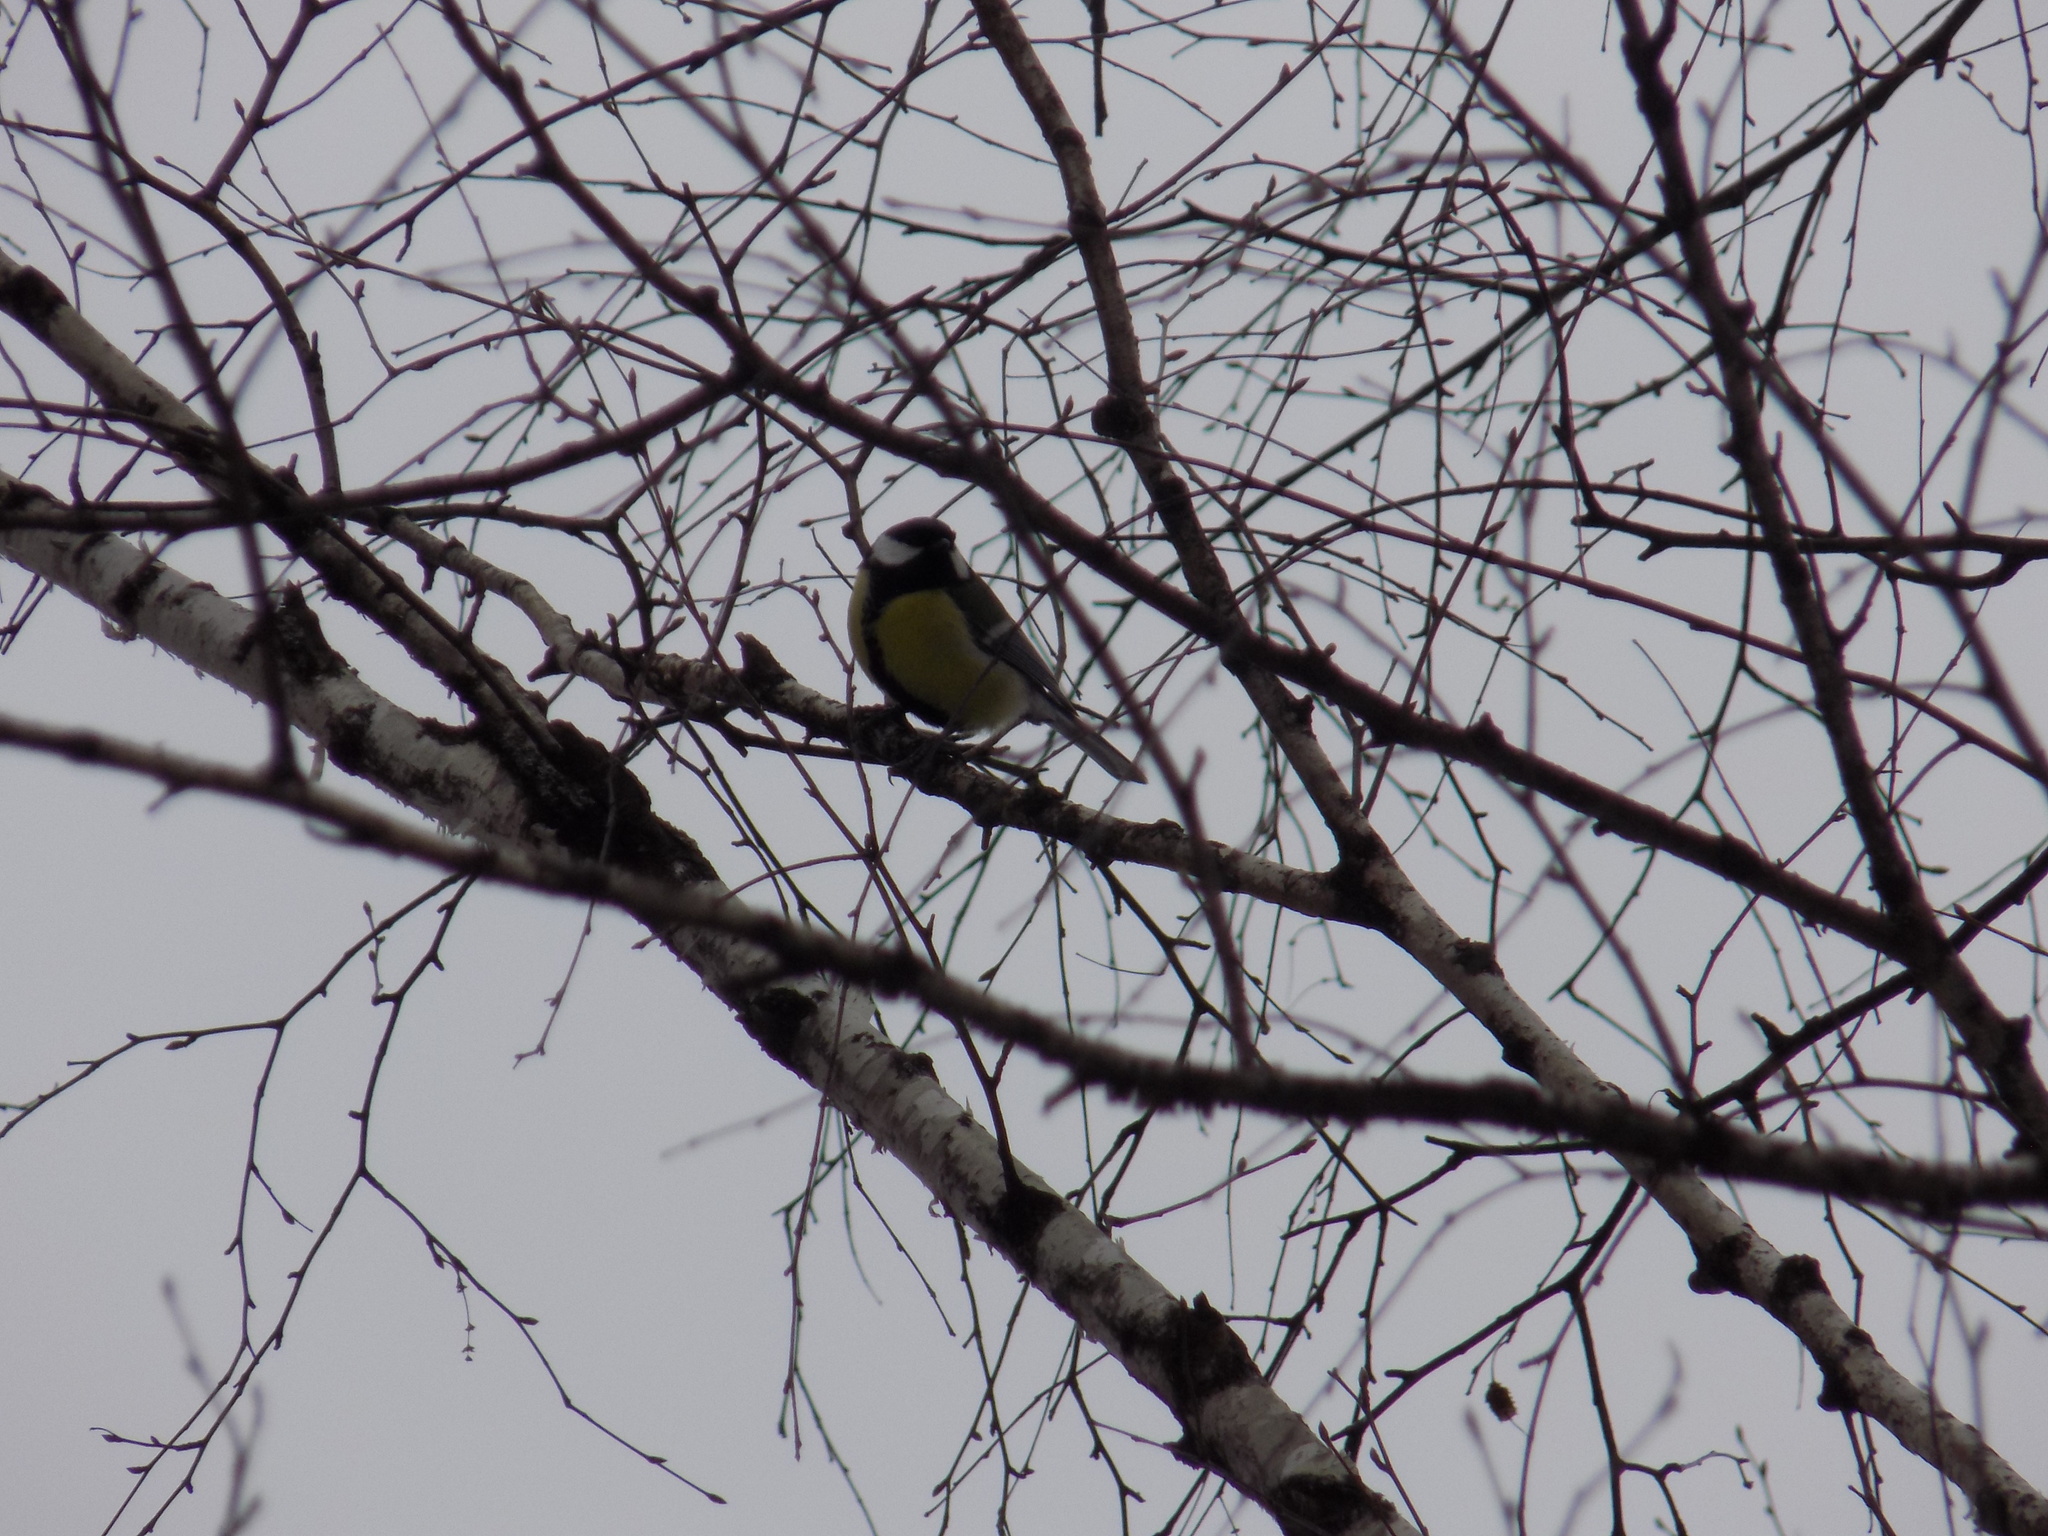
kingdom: Animalia
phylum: Chordata
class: Aves
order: Passeriformes
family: Paridae
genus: Parus
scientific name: Parus major
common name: Great tit
